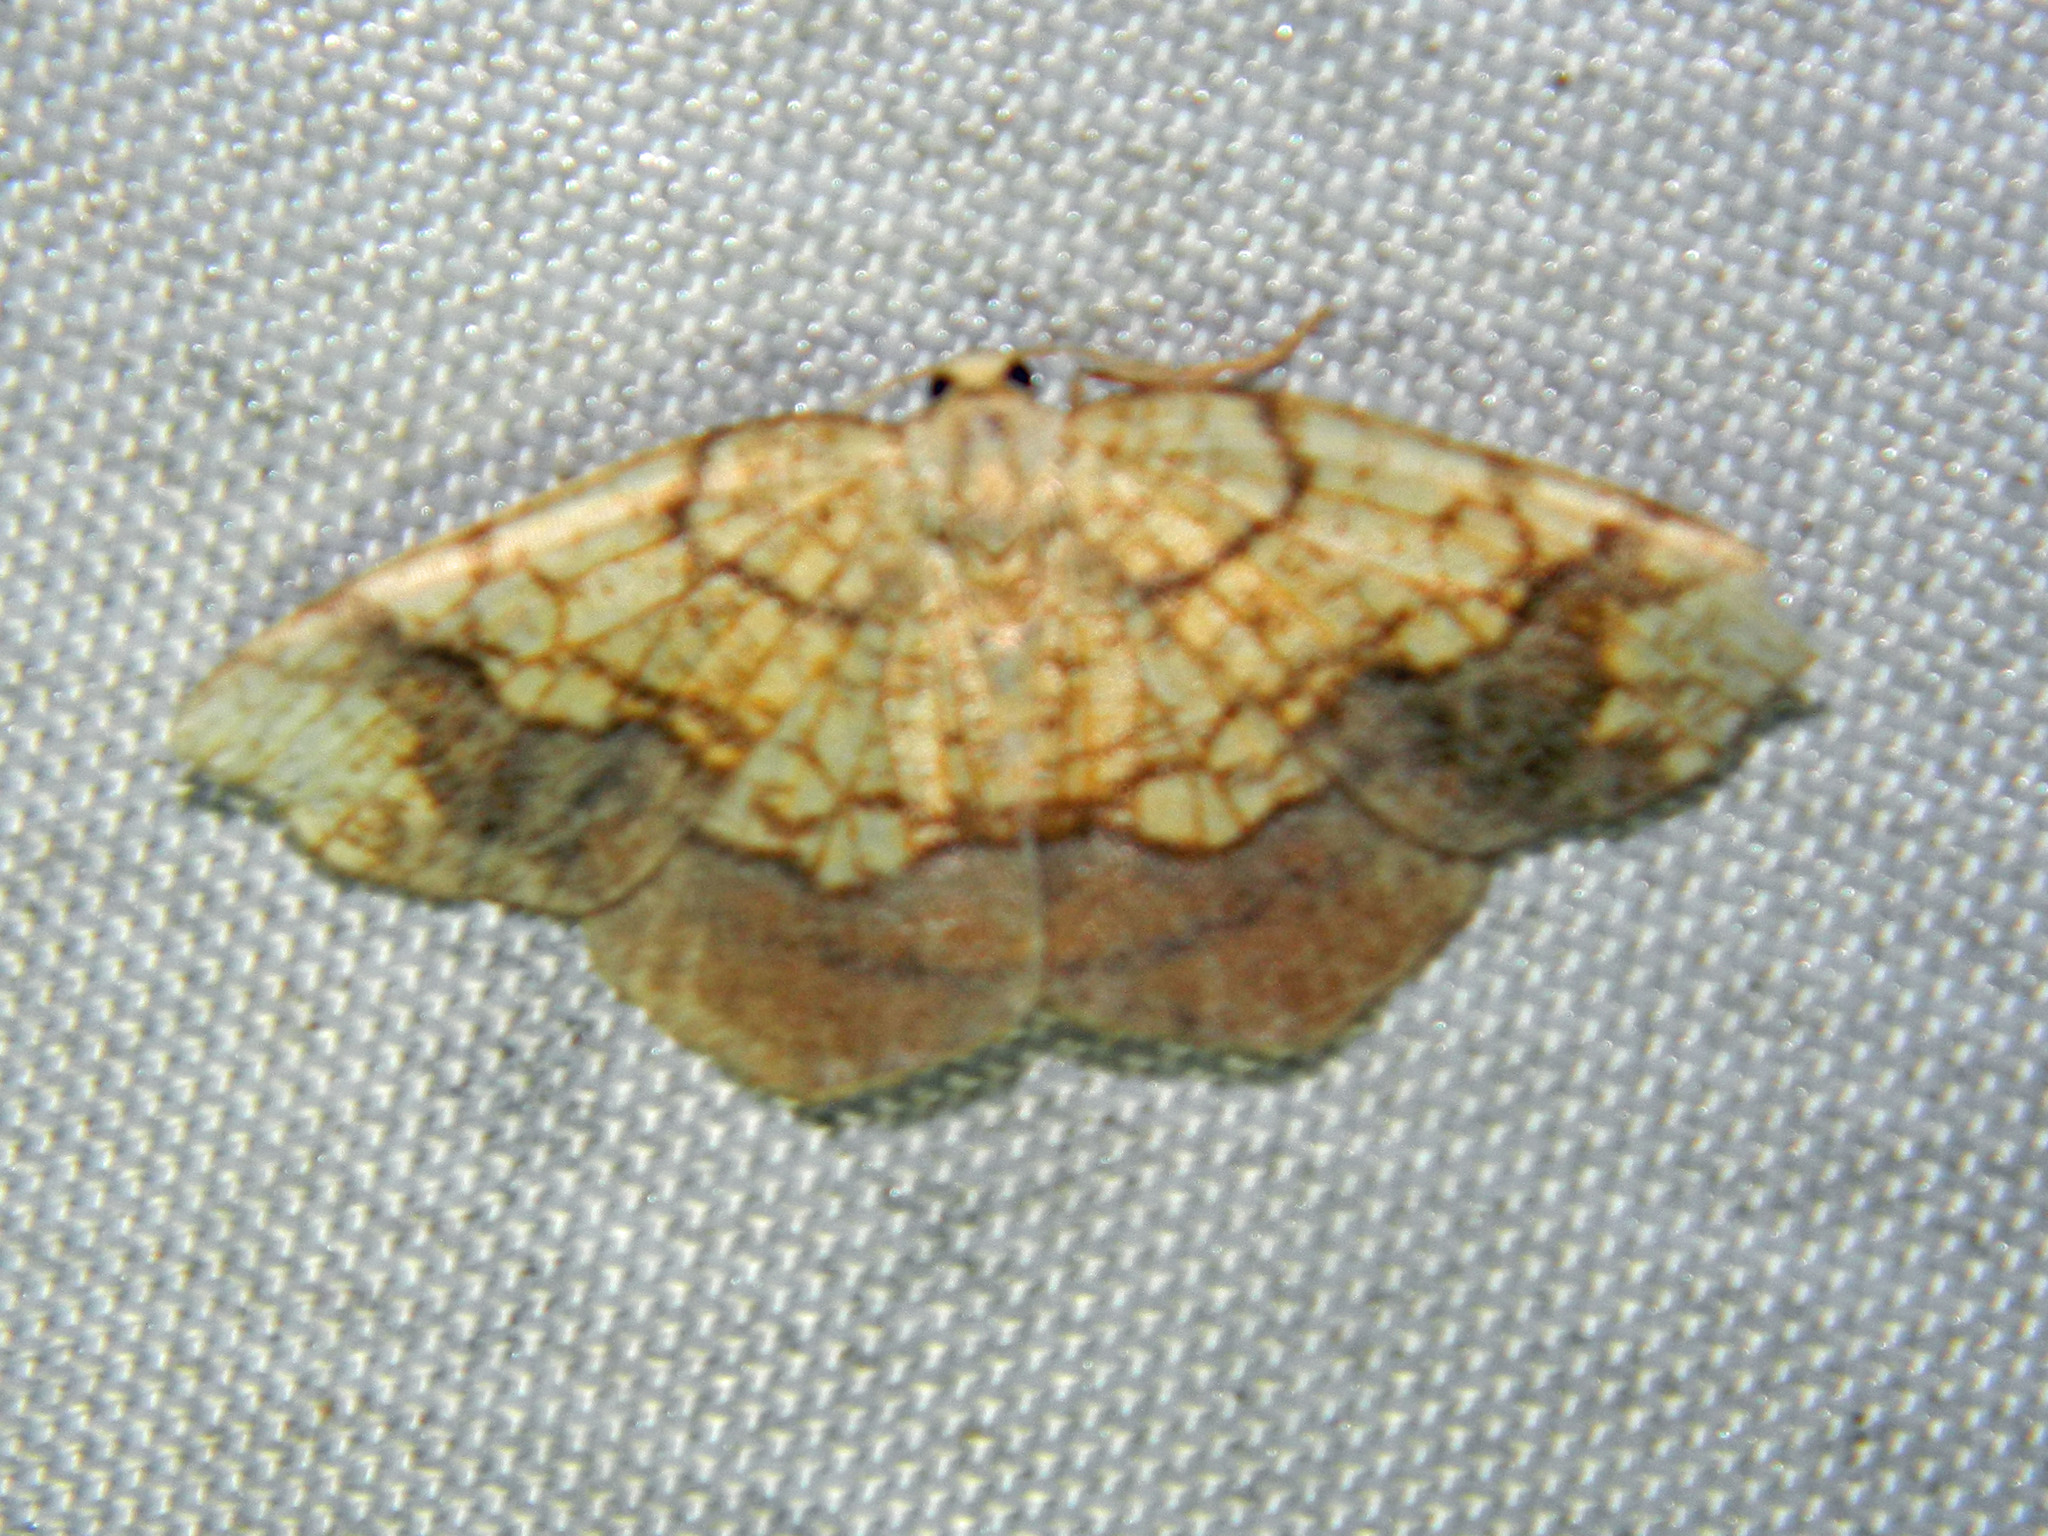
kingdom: Animalia
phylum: Arthropoda
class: Insecta
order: Lepidoptera
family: Geometridae
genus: Nematocampa
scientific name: Nematocampa resistaria
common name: Horned spanworm moth
